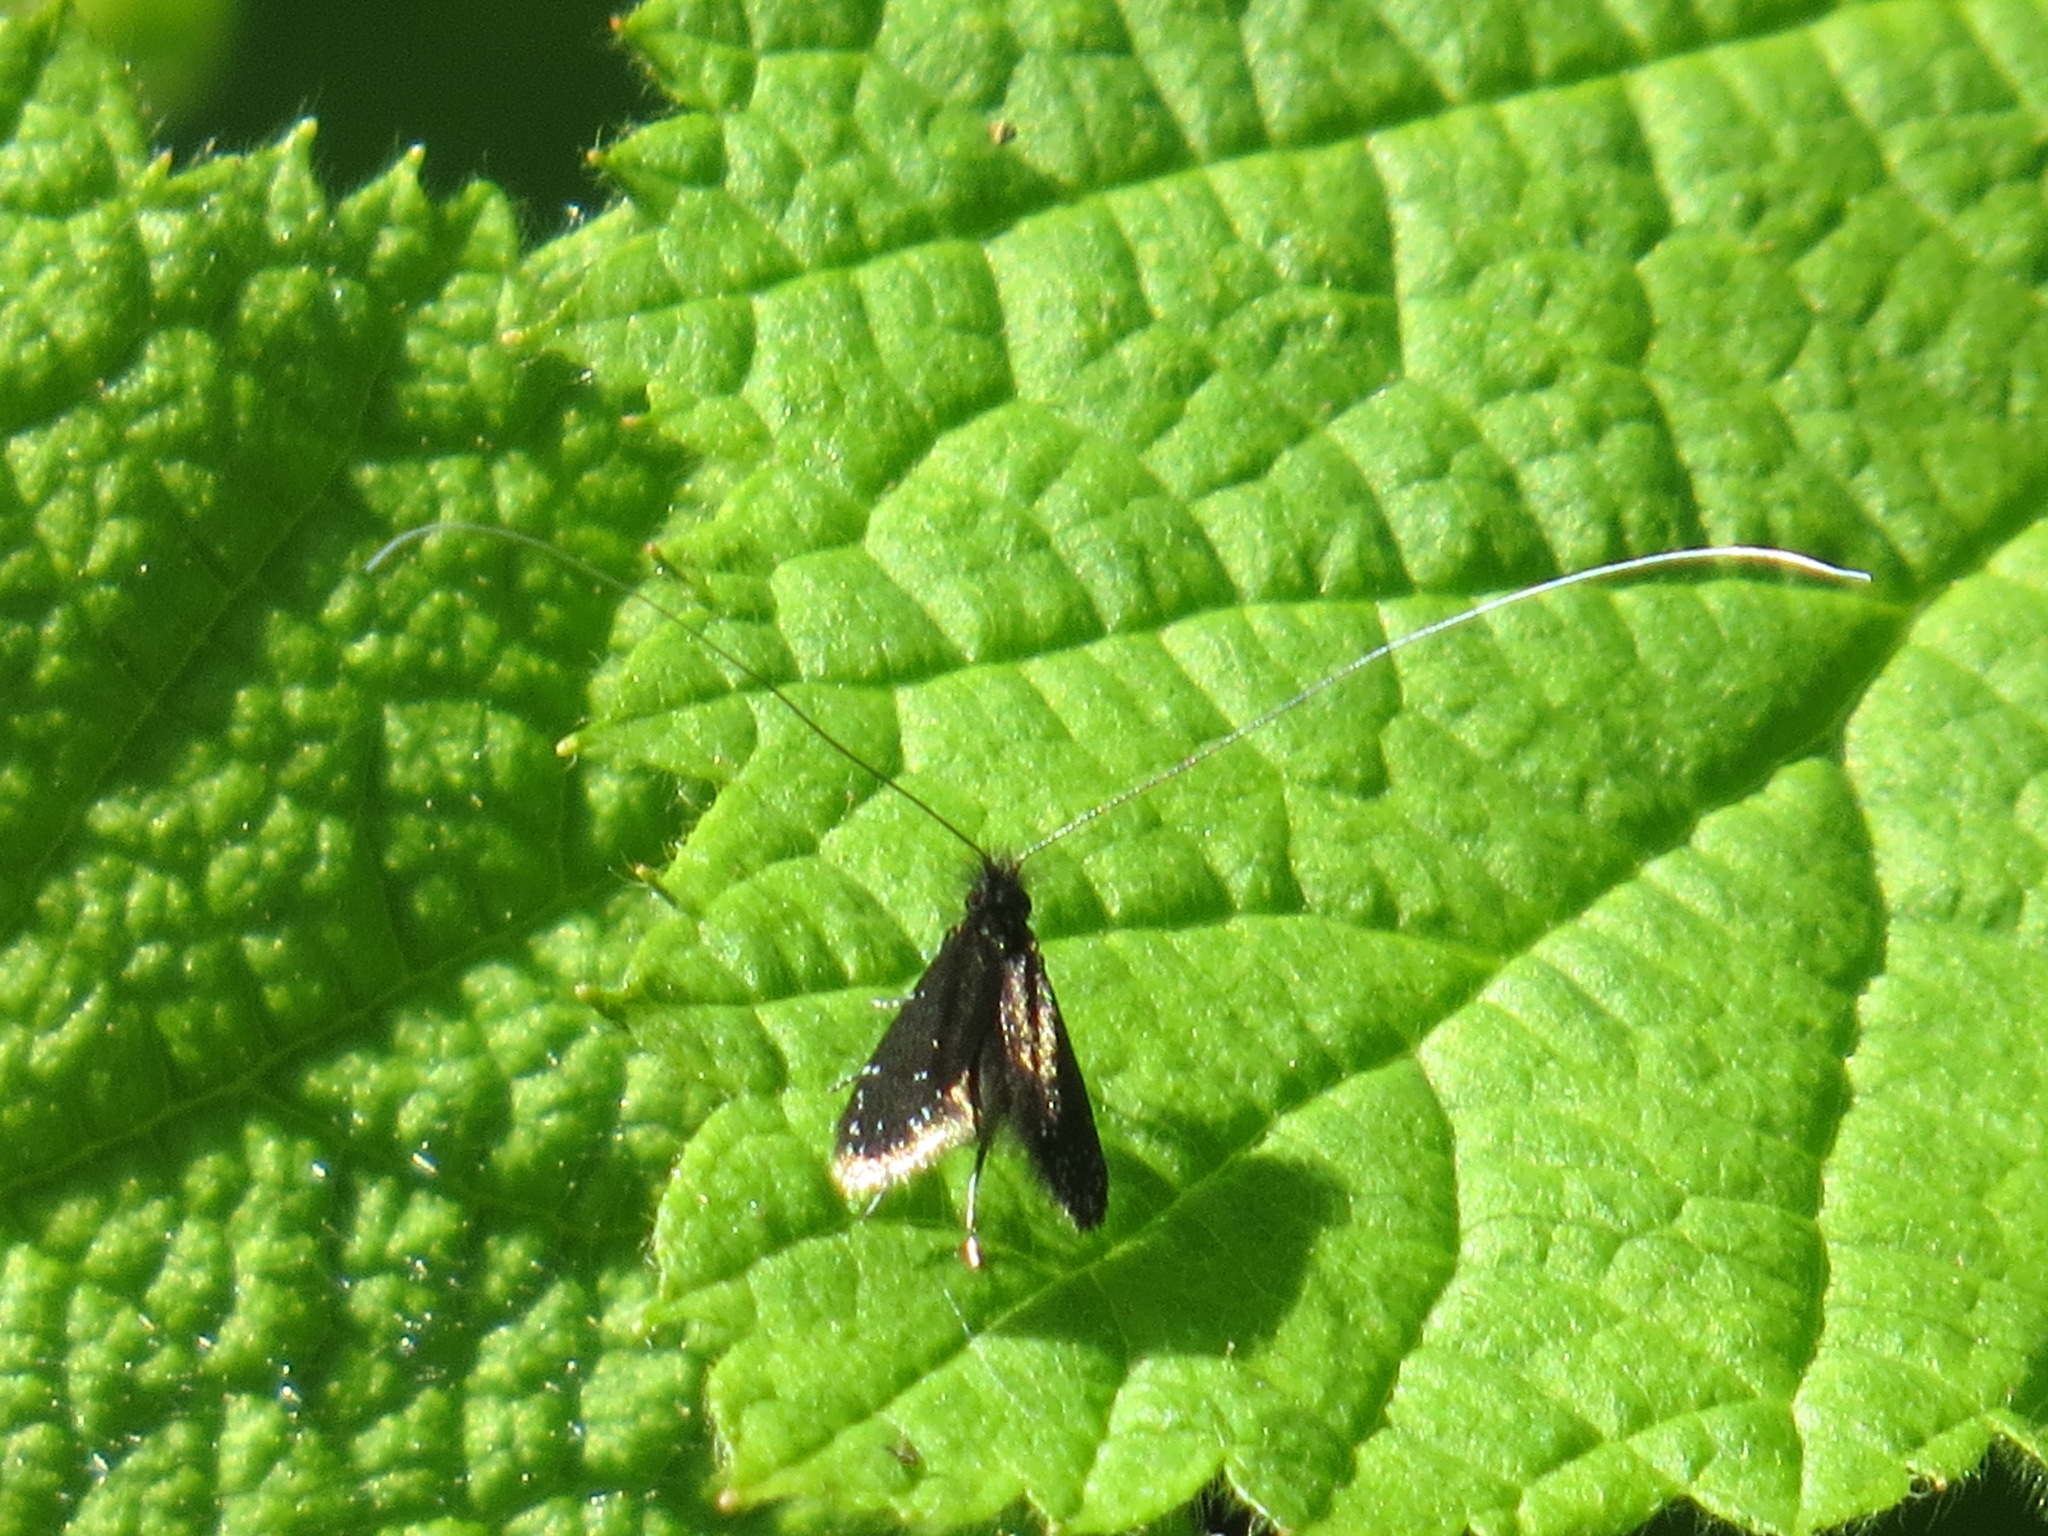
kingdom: Animalia
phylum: Arthropoda
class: Insecta
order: Lepidoptera
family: Adelidae
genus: Adela
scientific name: Adela septentrionella
